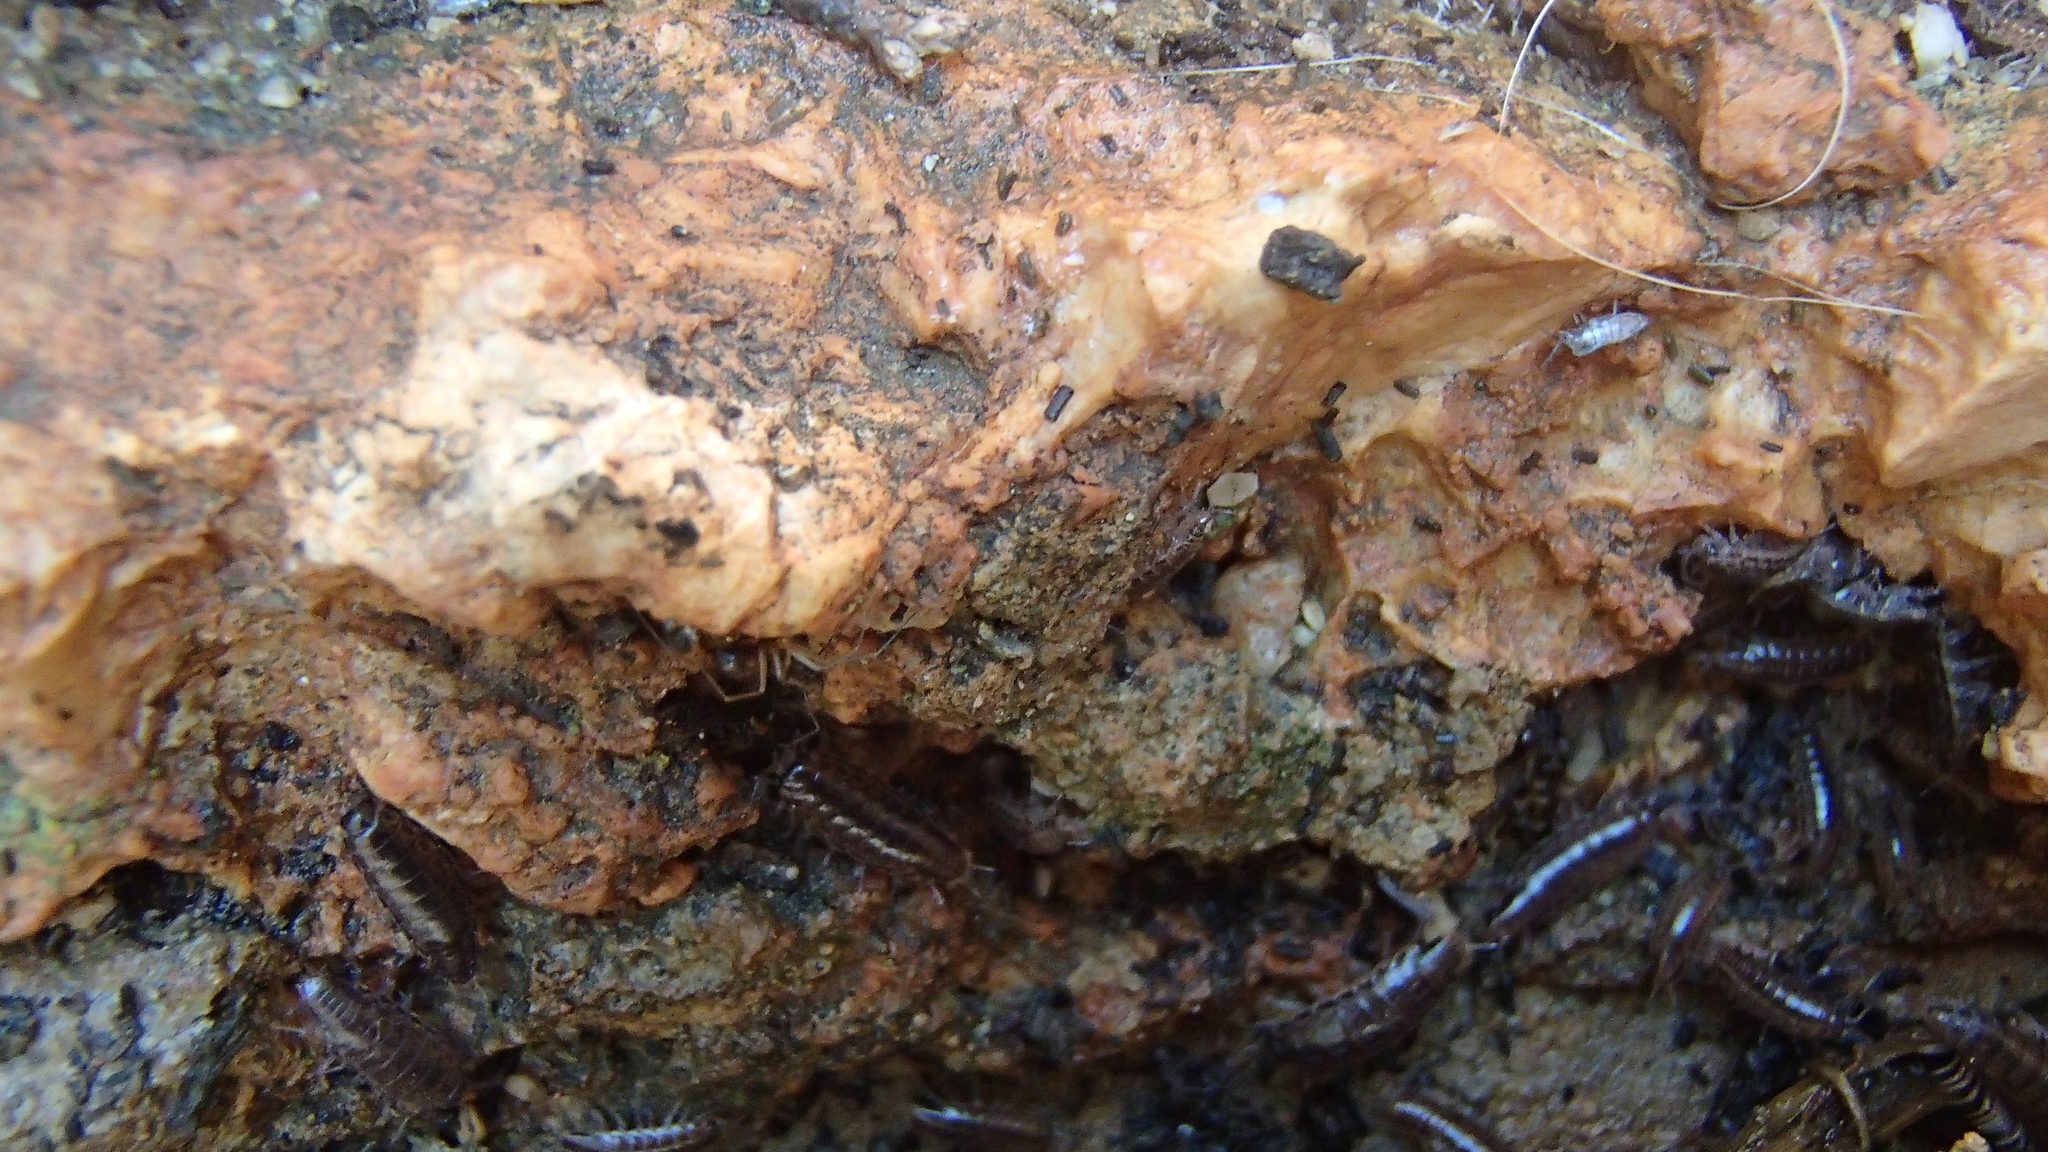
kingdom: Animalia
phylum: Arthropoda
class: Malacostraca
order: Isopoda
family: Philosciidae
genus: Chaetophiloscia
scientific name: Chaetophiloscia elongata
